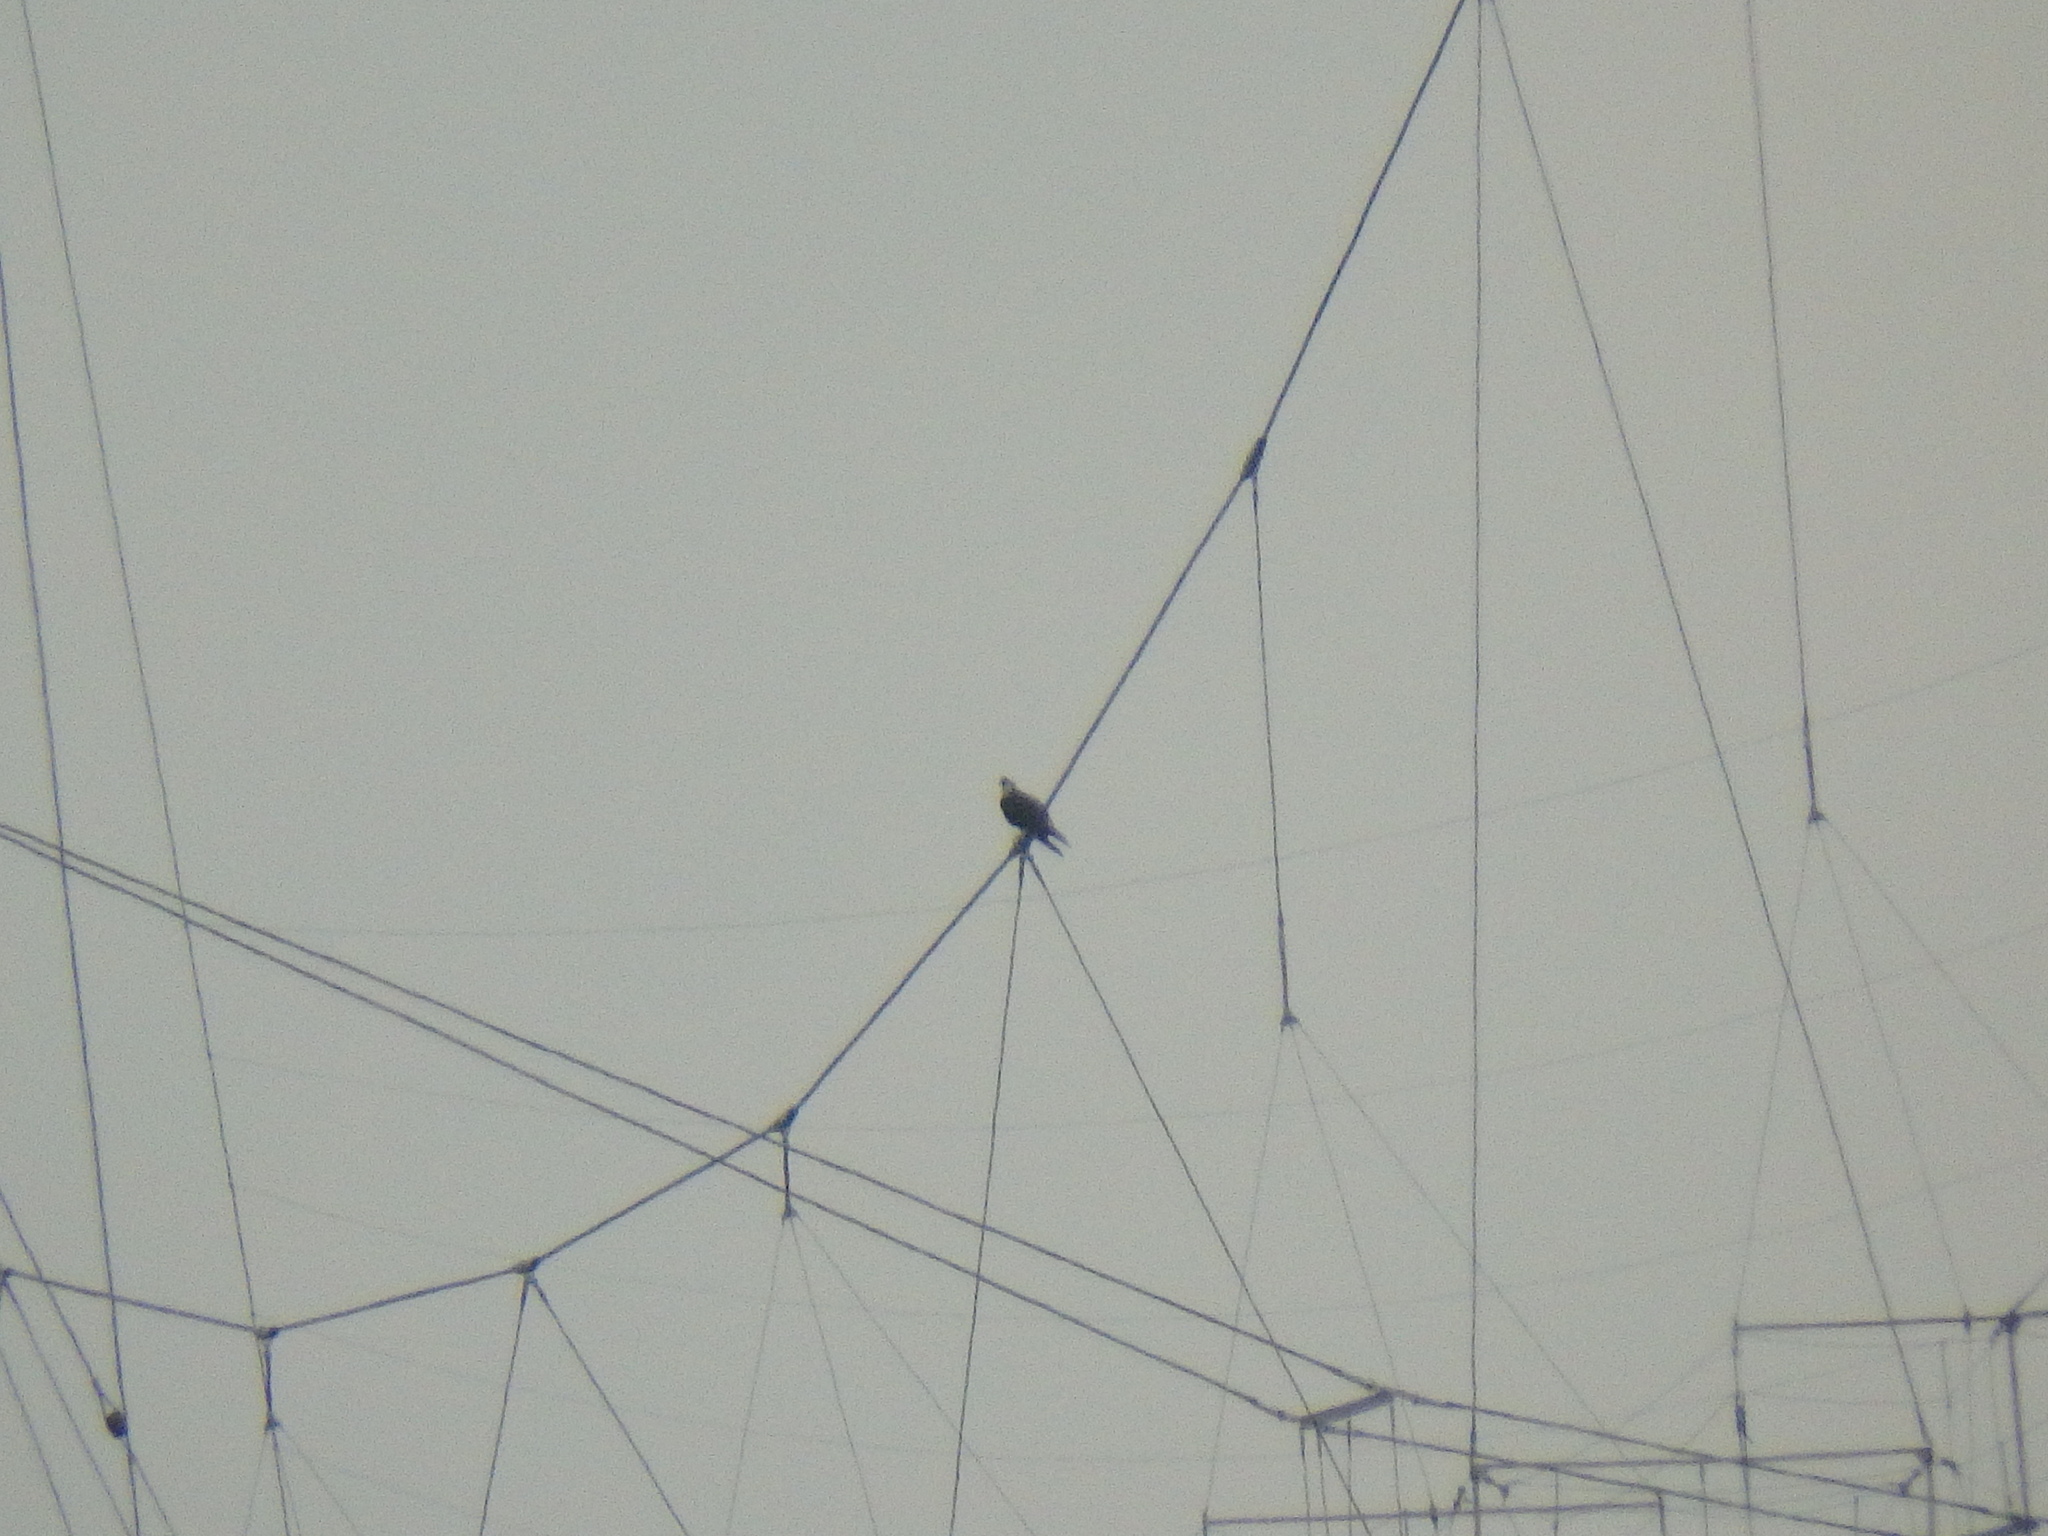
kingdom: Animalia
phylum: Chordata
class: Aves
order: Accipitriformes
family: Pandionidae
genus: Pandion
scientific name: Pandion haliaetus
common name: Osprey
